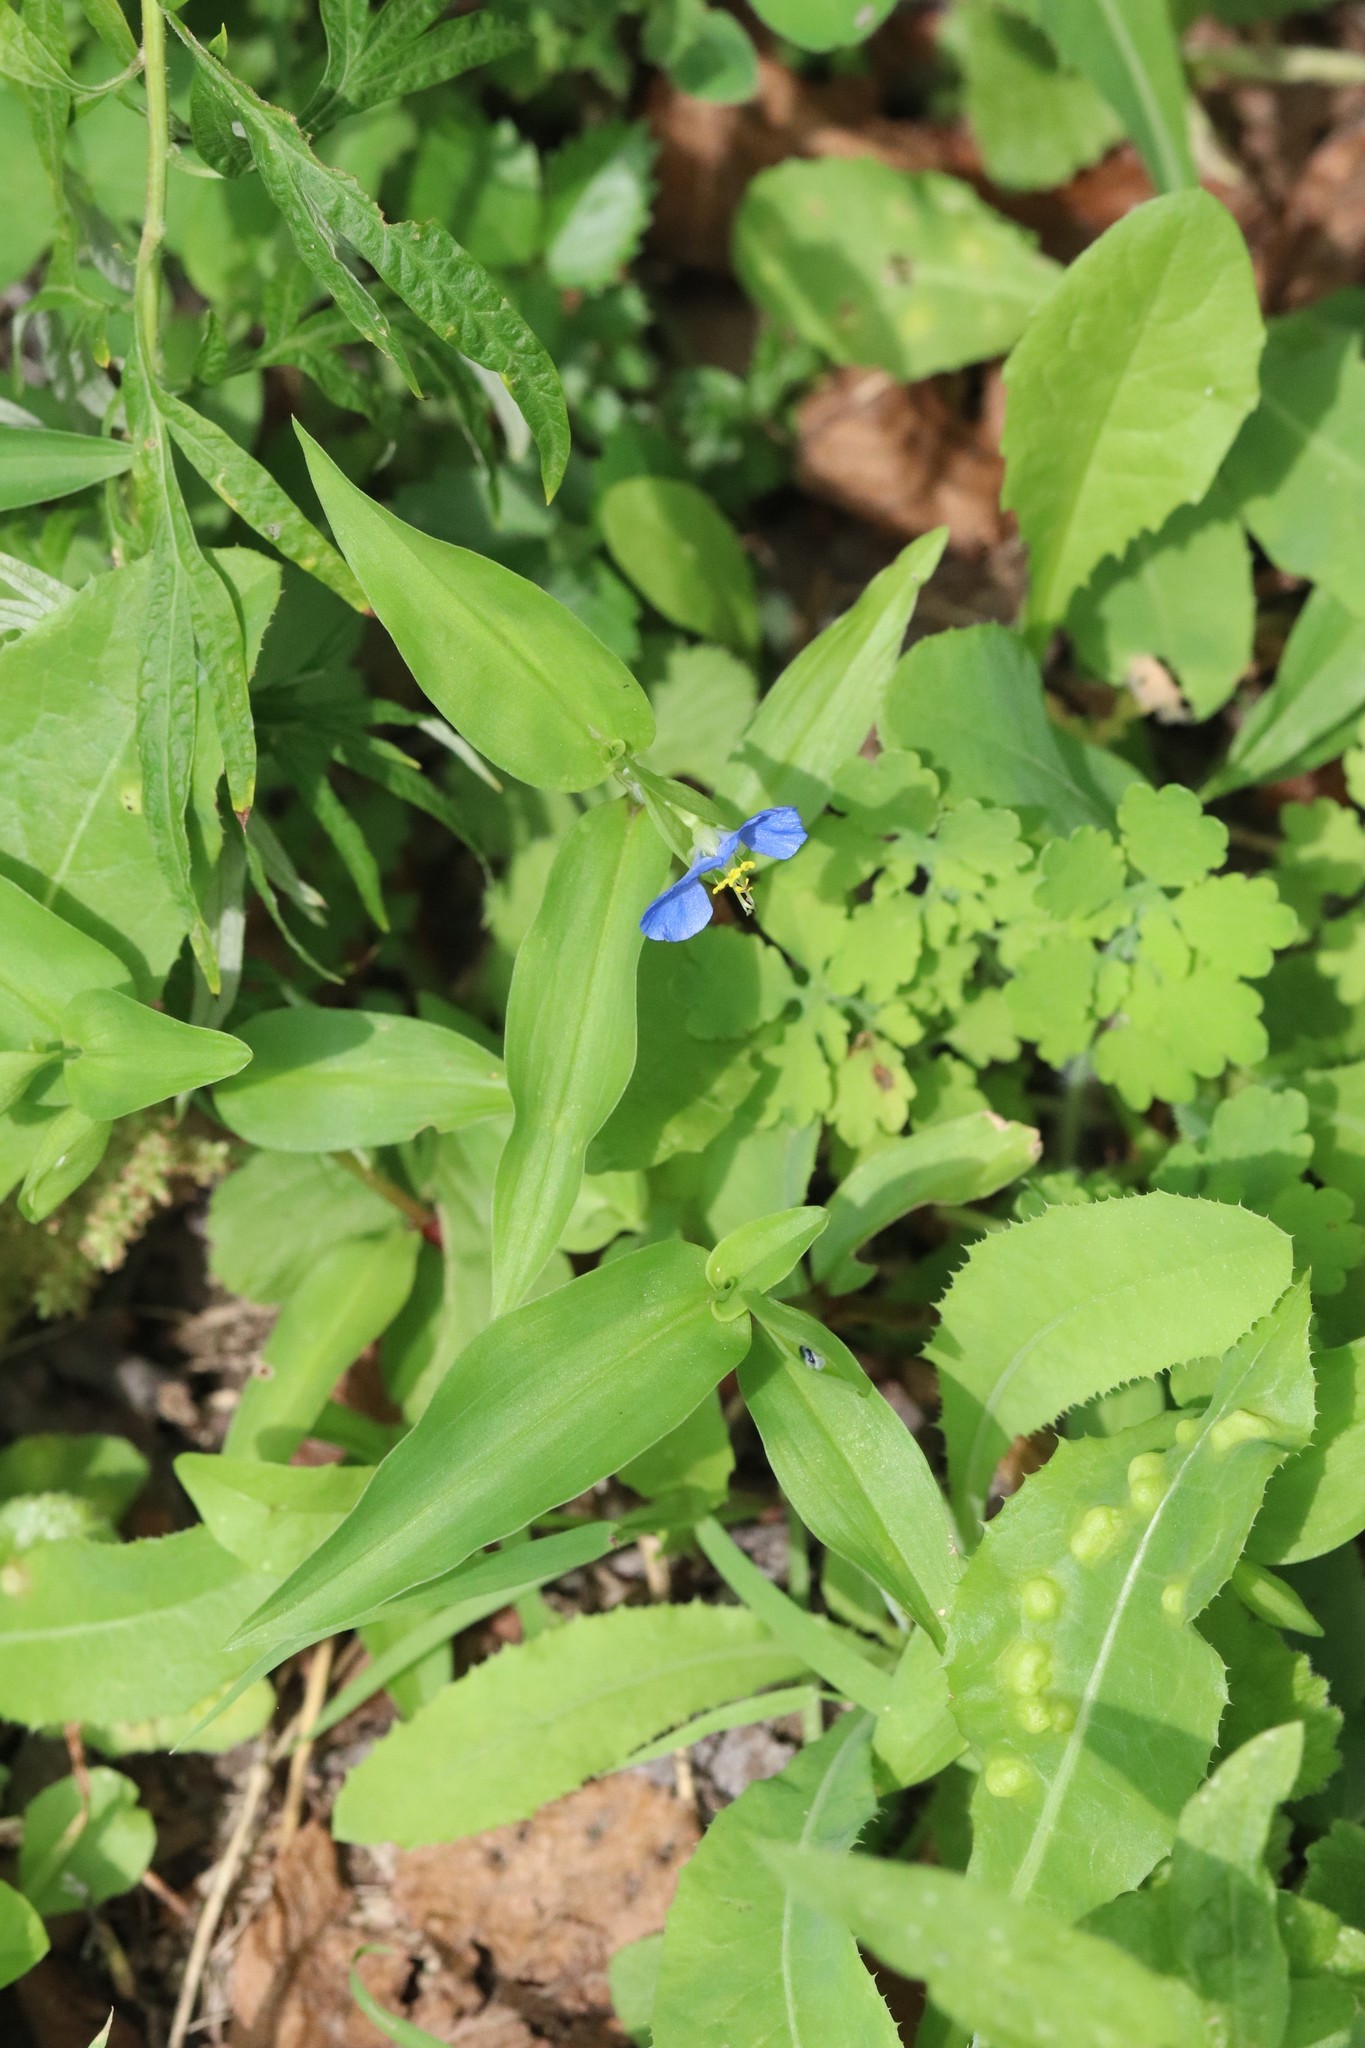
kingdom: Plantae
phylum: Tracheophyta
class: Liliopsida
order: Commelinales
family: Commelinaceae
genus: Commelina
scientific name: Commelina communis
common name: Asiatic dayflower
